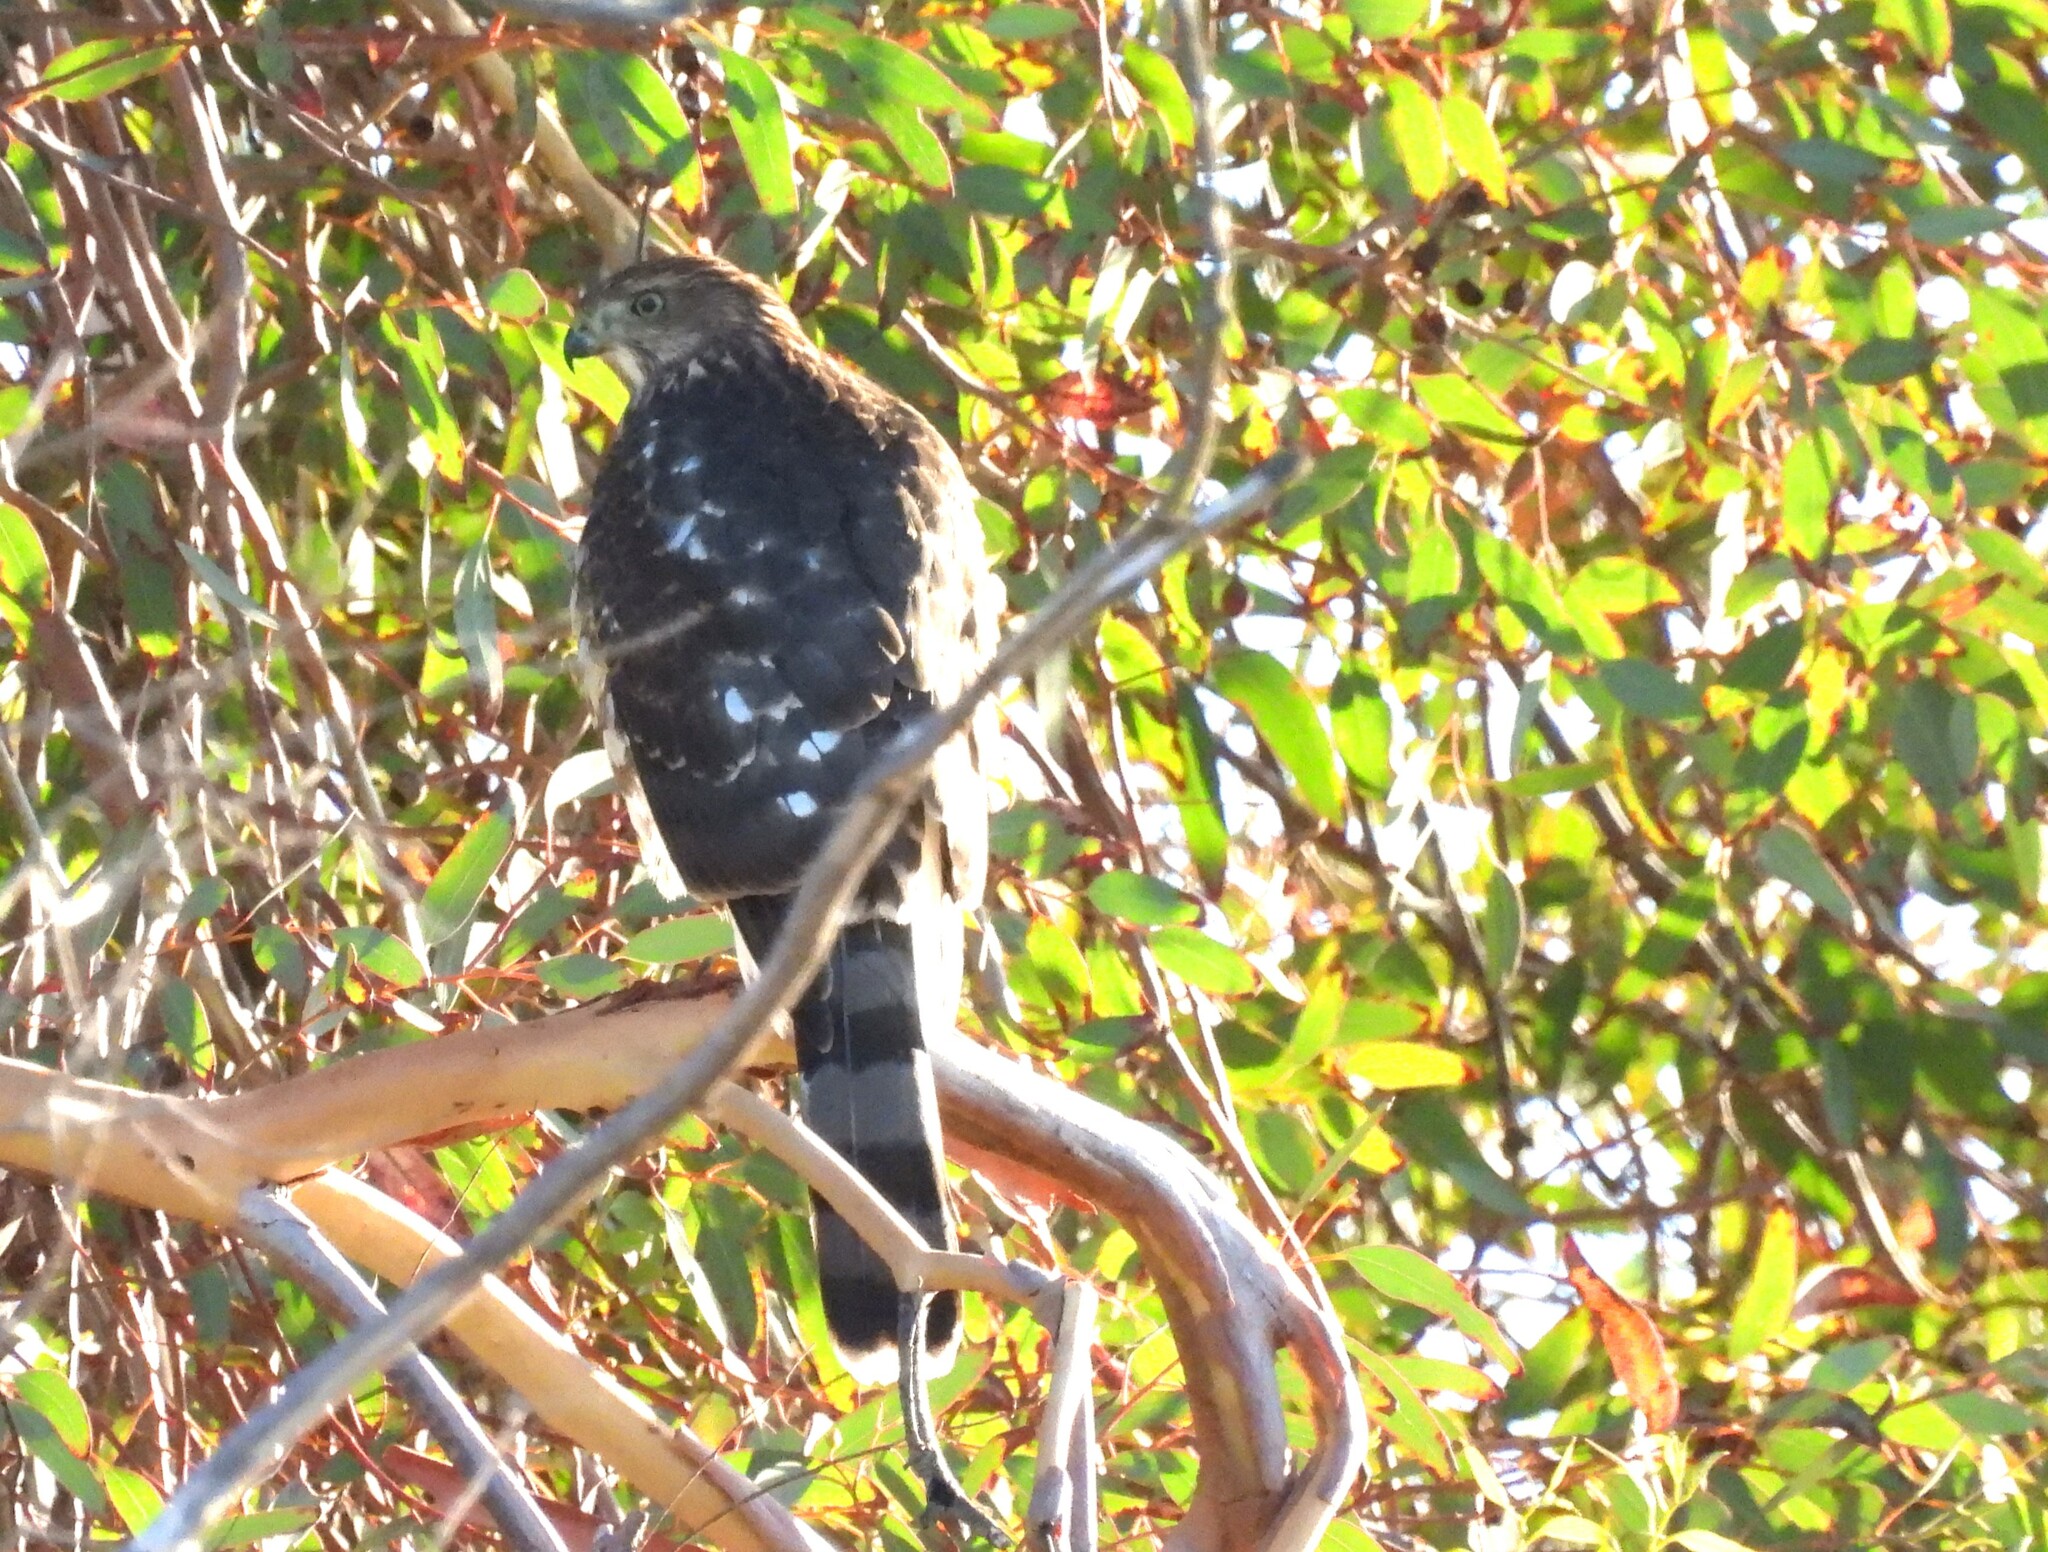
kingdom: Animalia
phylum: Chordata
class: Aves
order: Accipitriformes
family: Accipitridae
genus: Accipiter
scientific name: Accipiter cooperii
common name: Cooper's hawk
